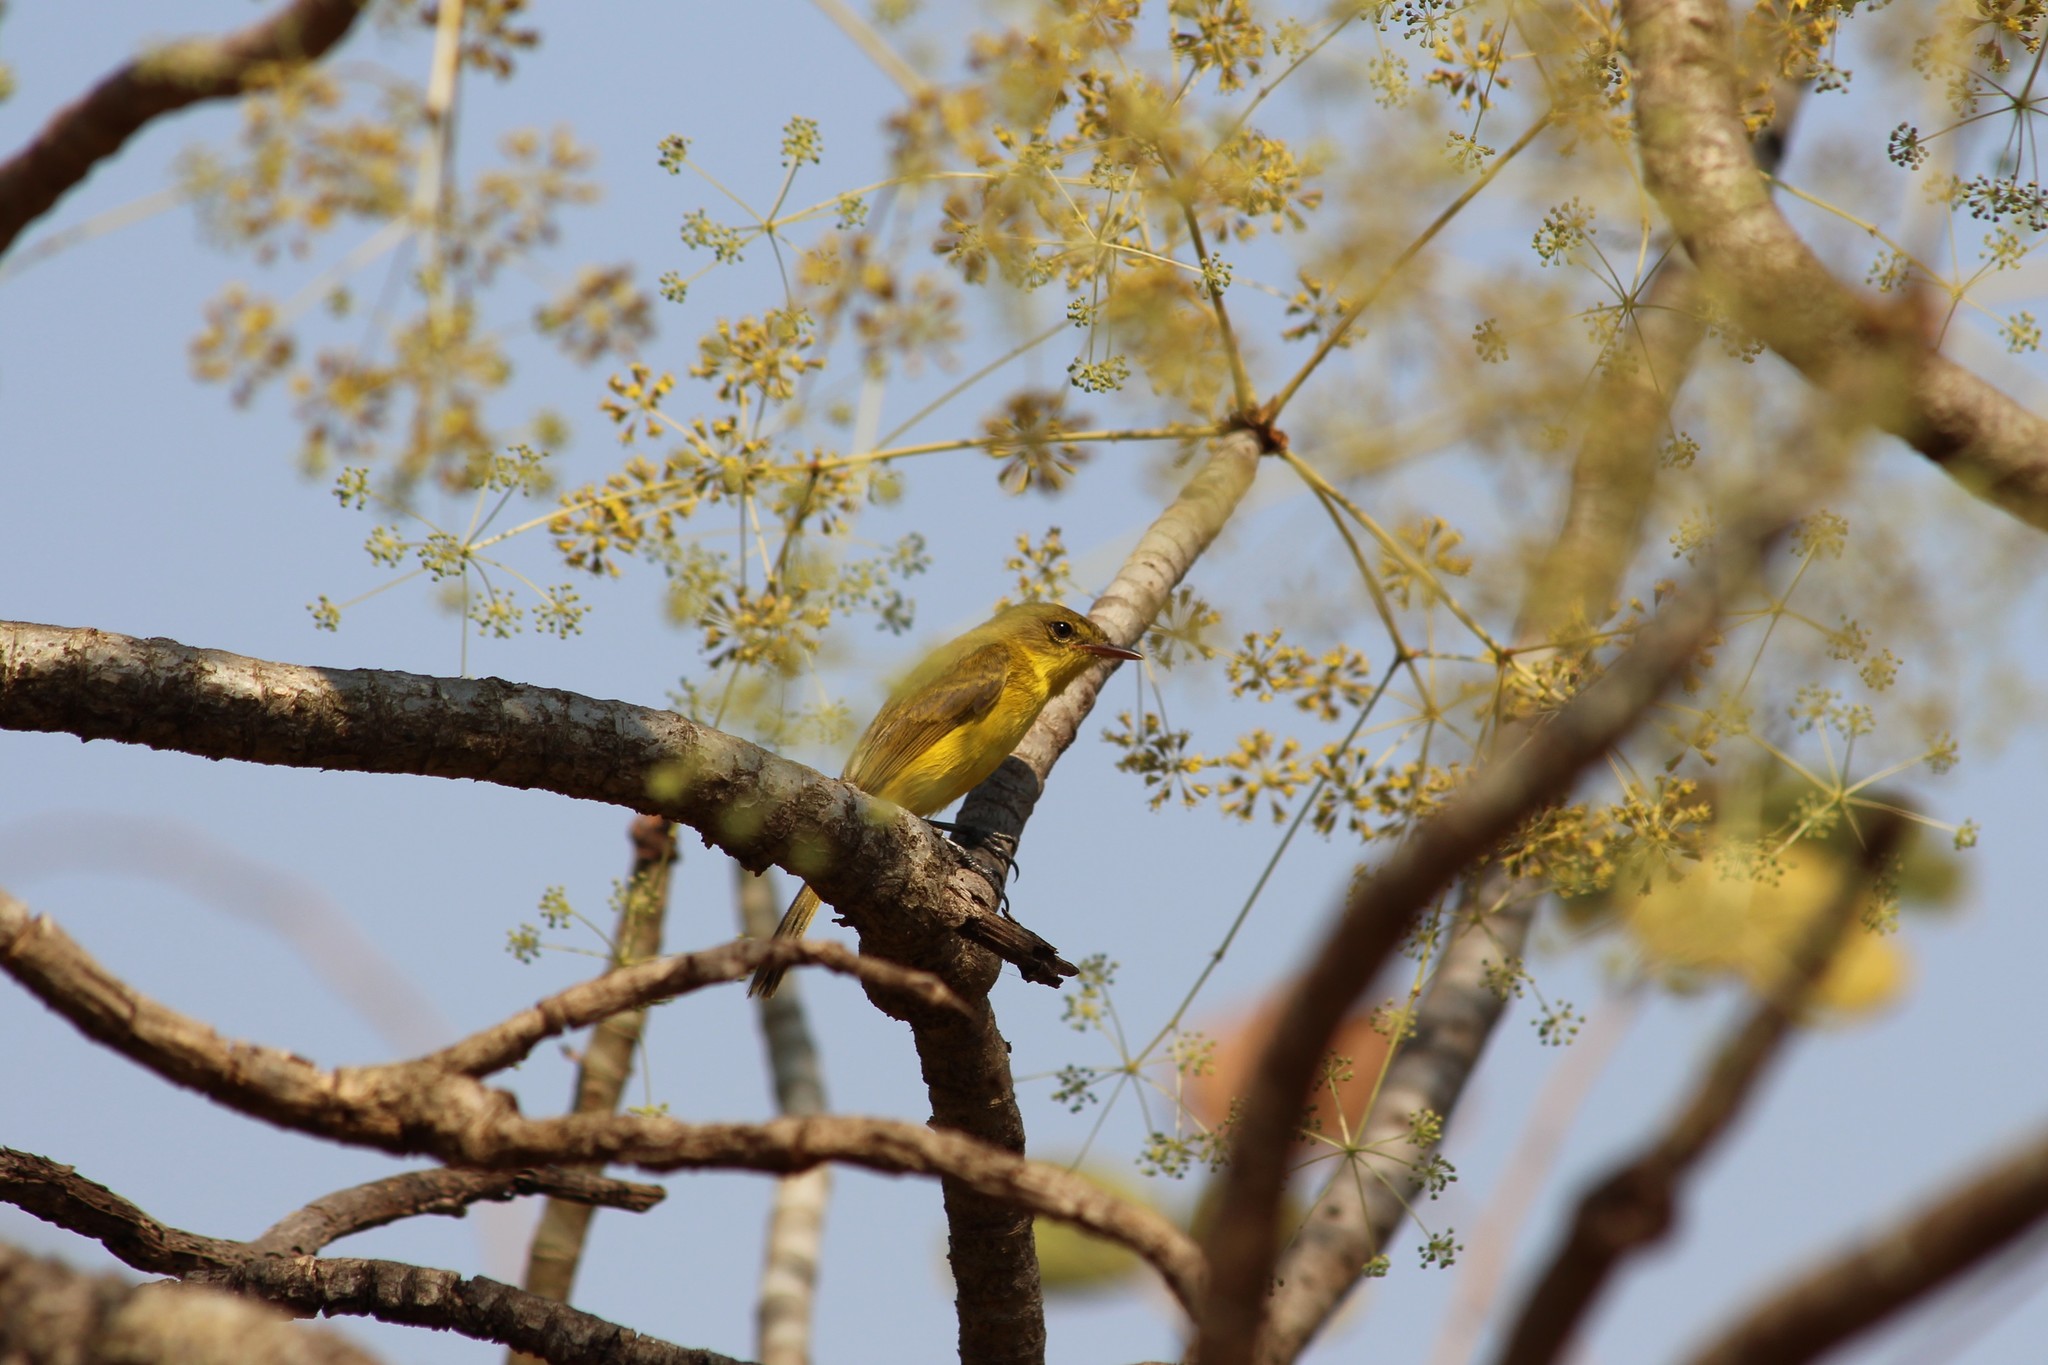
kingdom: Animalia
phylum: Chordata
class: Aves
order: Passeriformes
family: Acrocephalidae
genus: Iduna
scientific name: Iduna natalensis
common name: African yellow warbler
